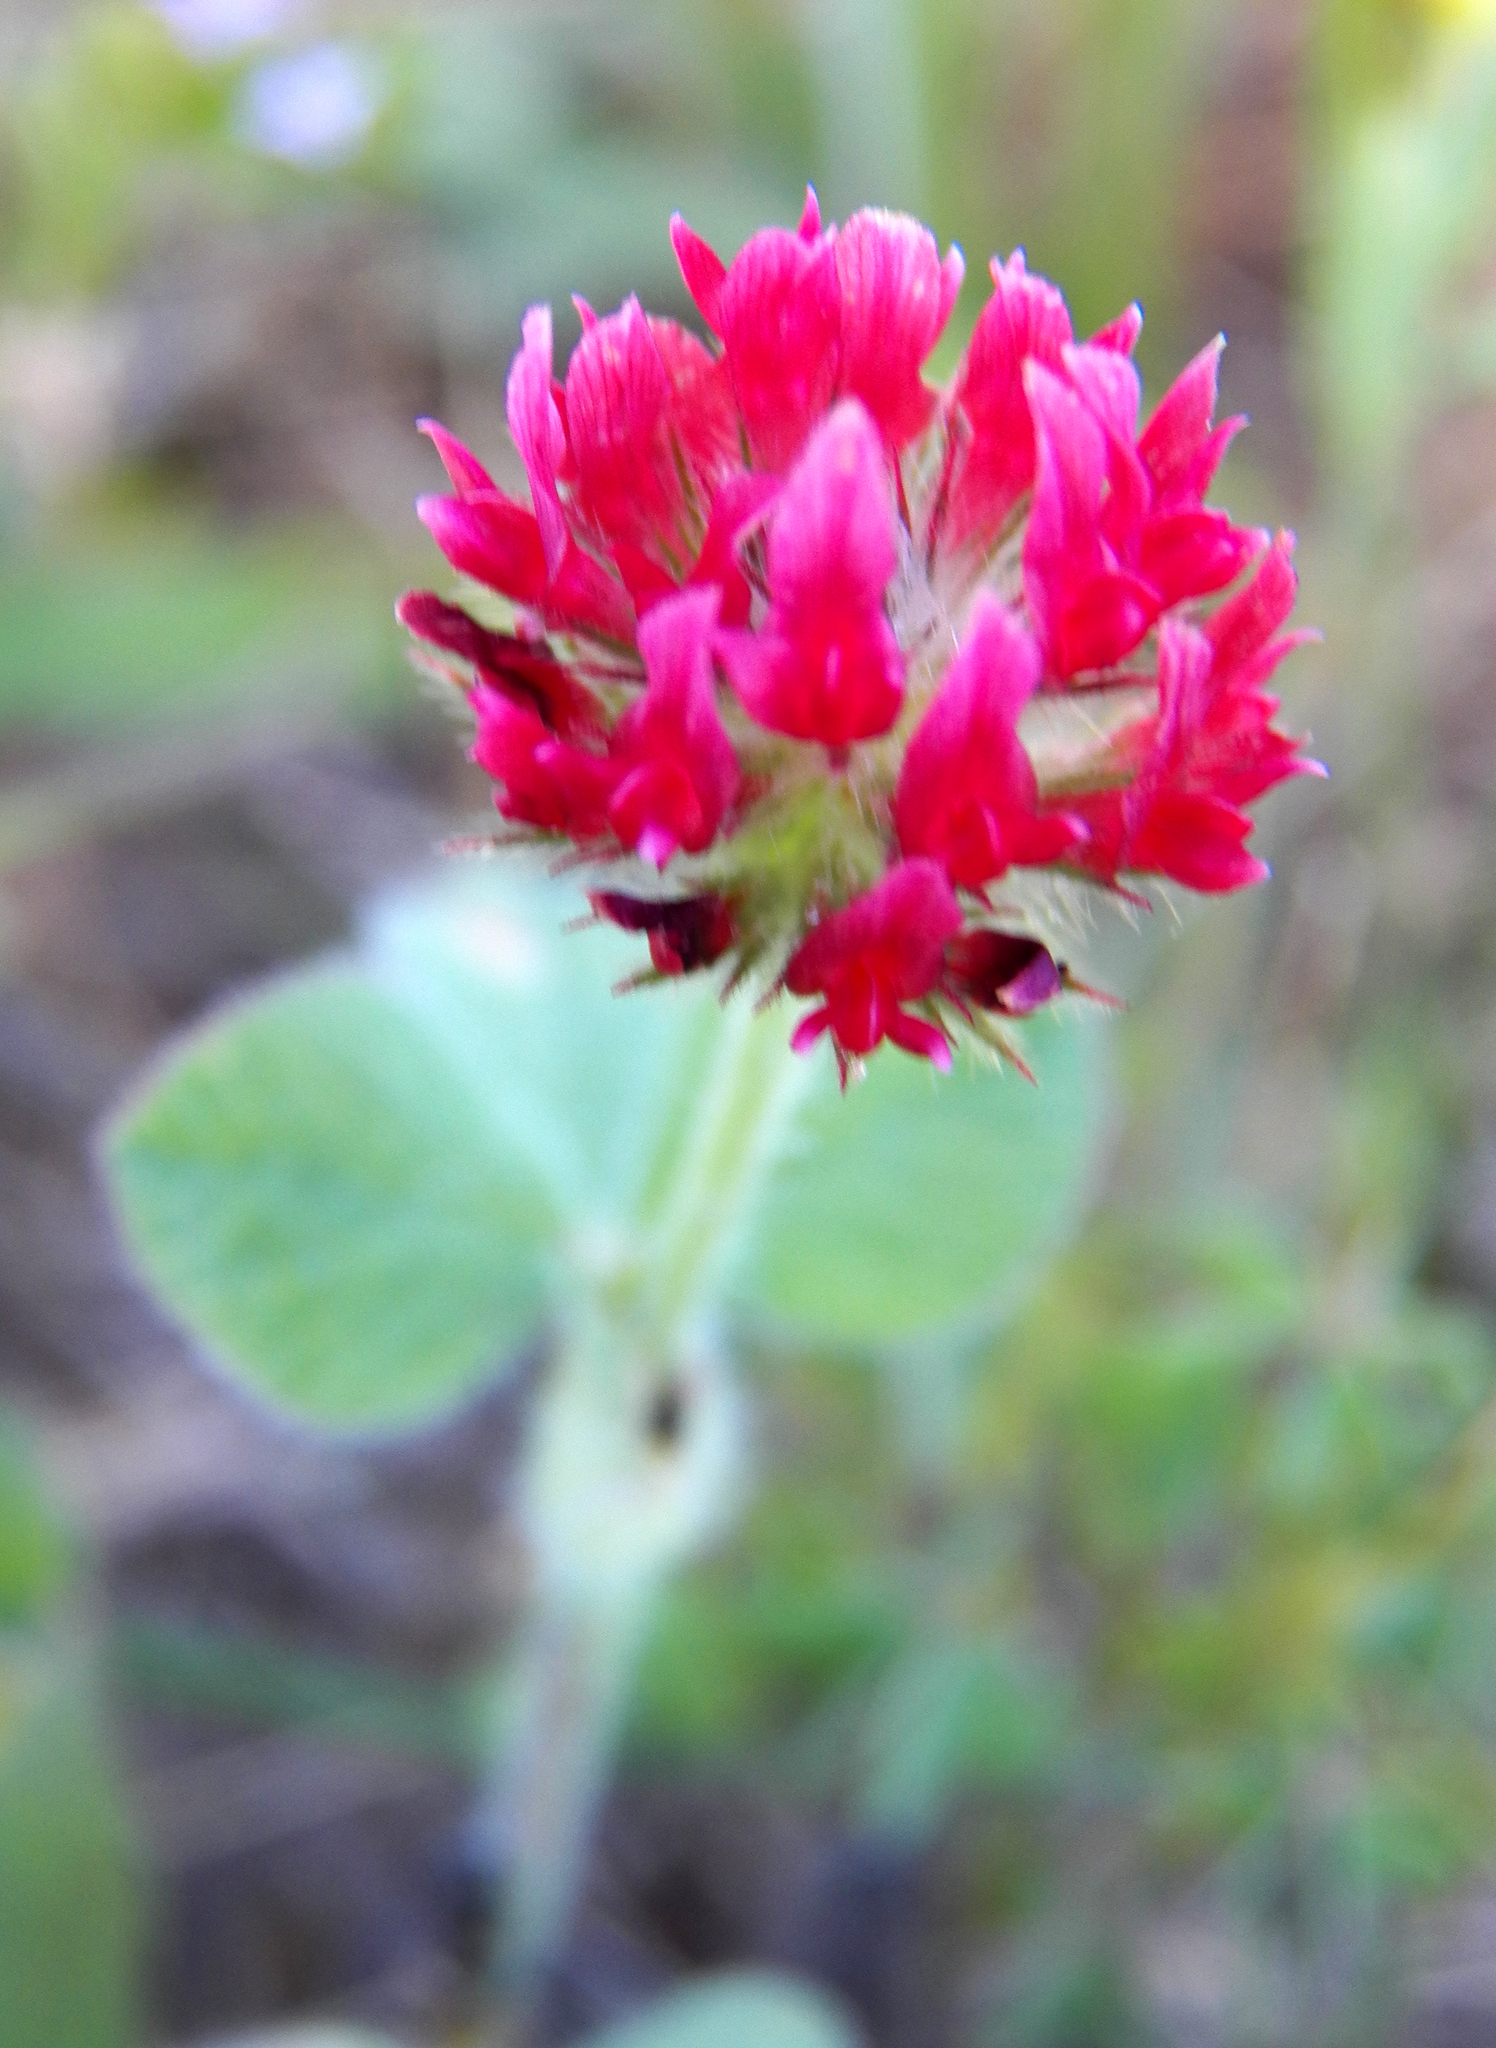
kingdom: Plantae
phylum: Tracheophyta
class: Magnoliopsida
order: Fabales
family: Fabaceae
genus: Trifolium
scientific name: Trifolium incarnatum
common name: Crimson clover
